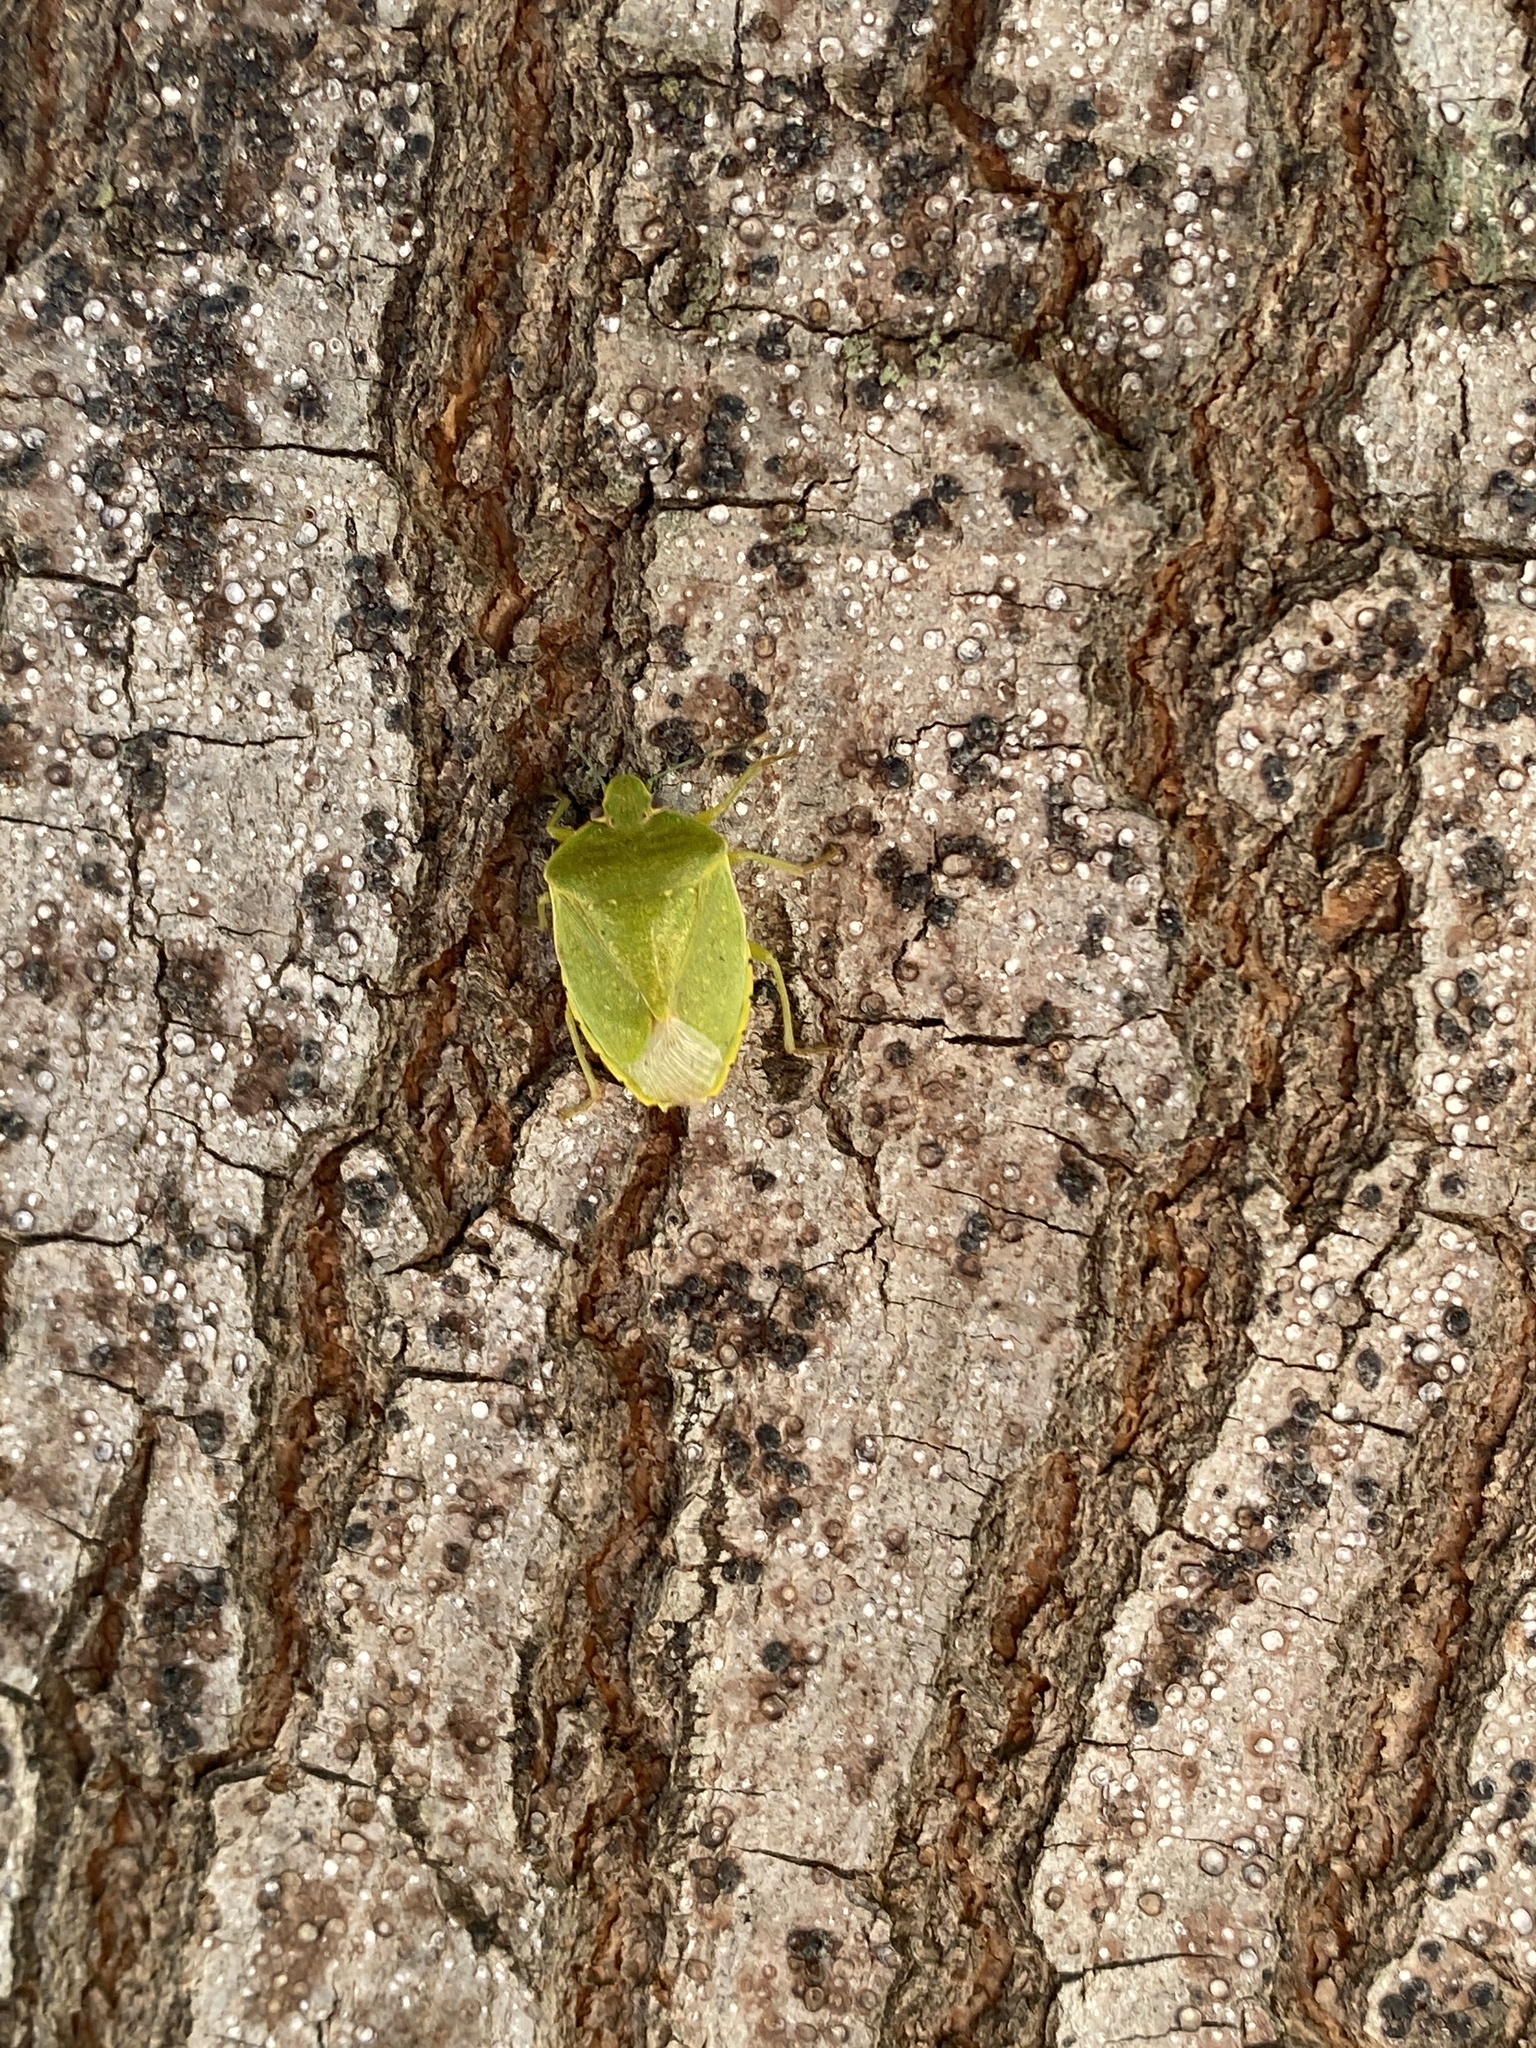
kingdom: Animalia
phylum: Arthropoda
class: Insecta
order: Hemiptera
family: Pentatomidae
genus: Chinavia
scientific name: Chinavia hilaris
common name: Green stink bug
